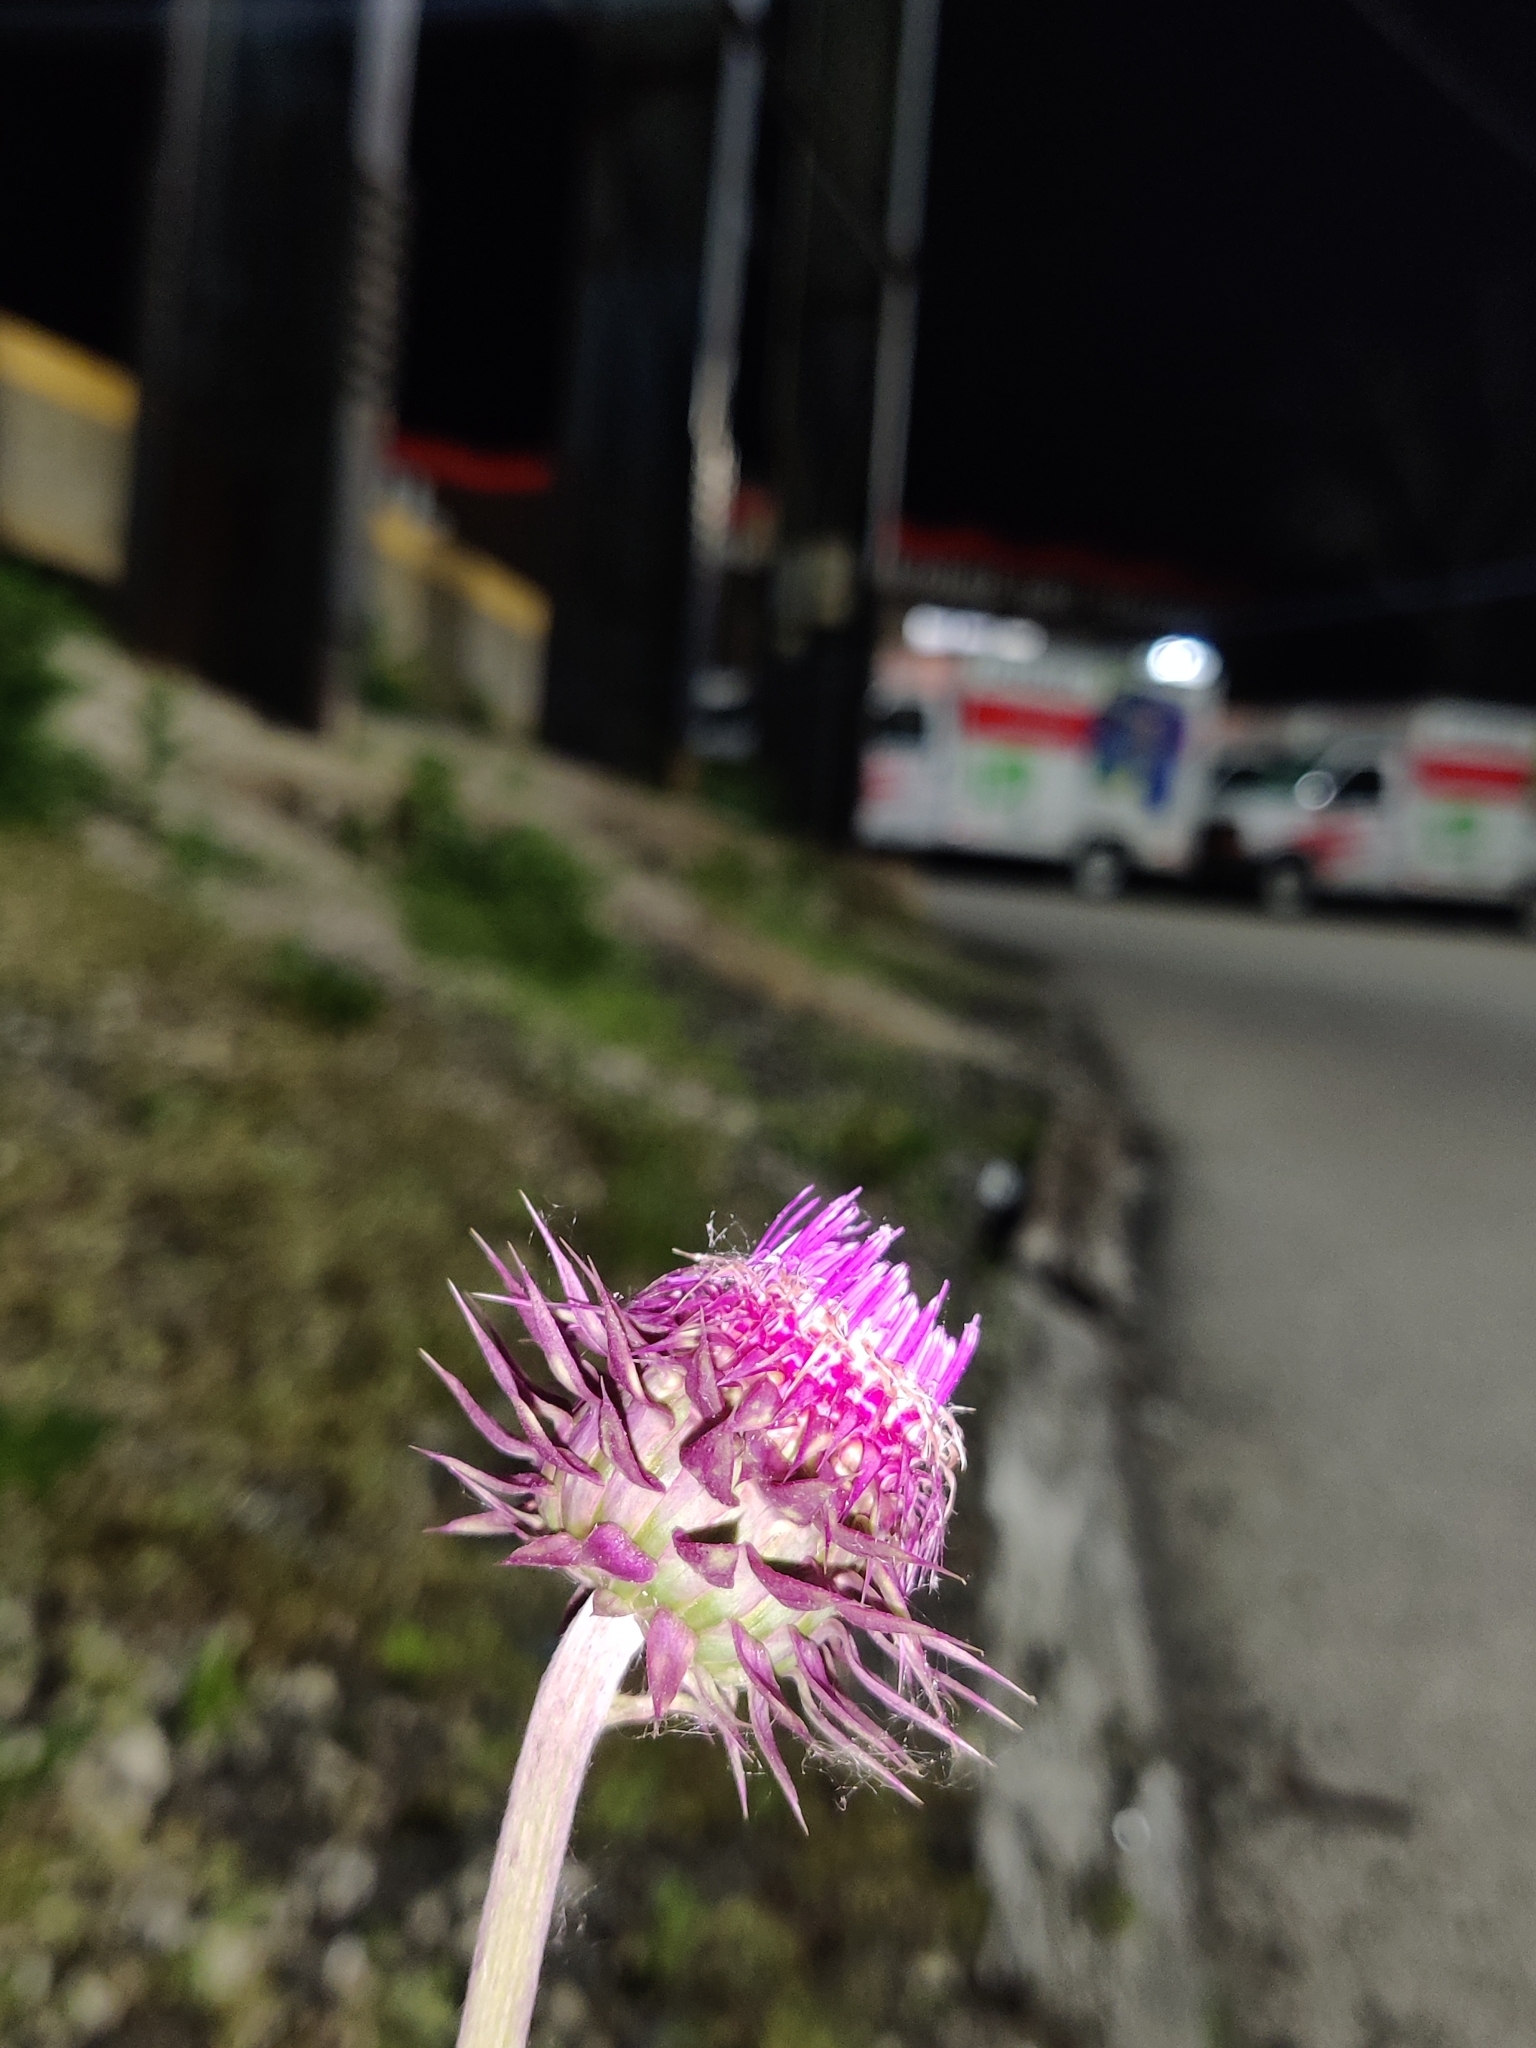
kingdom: Plantae
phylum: Tracheophyta
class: Magnoliopsida
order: Asterales
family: Asteraceae
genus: Carduus
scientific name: Carduus nutans
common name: Musk thistle
